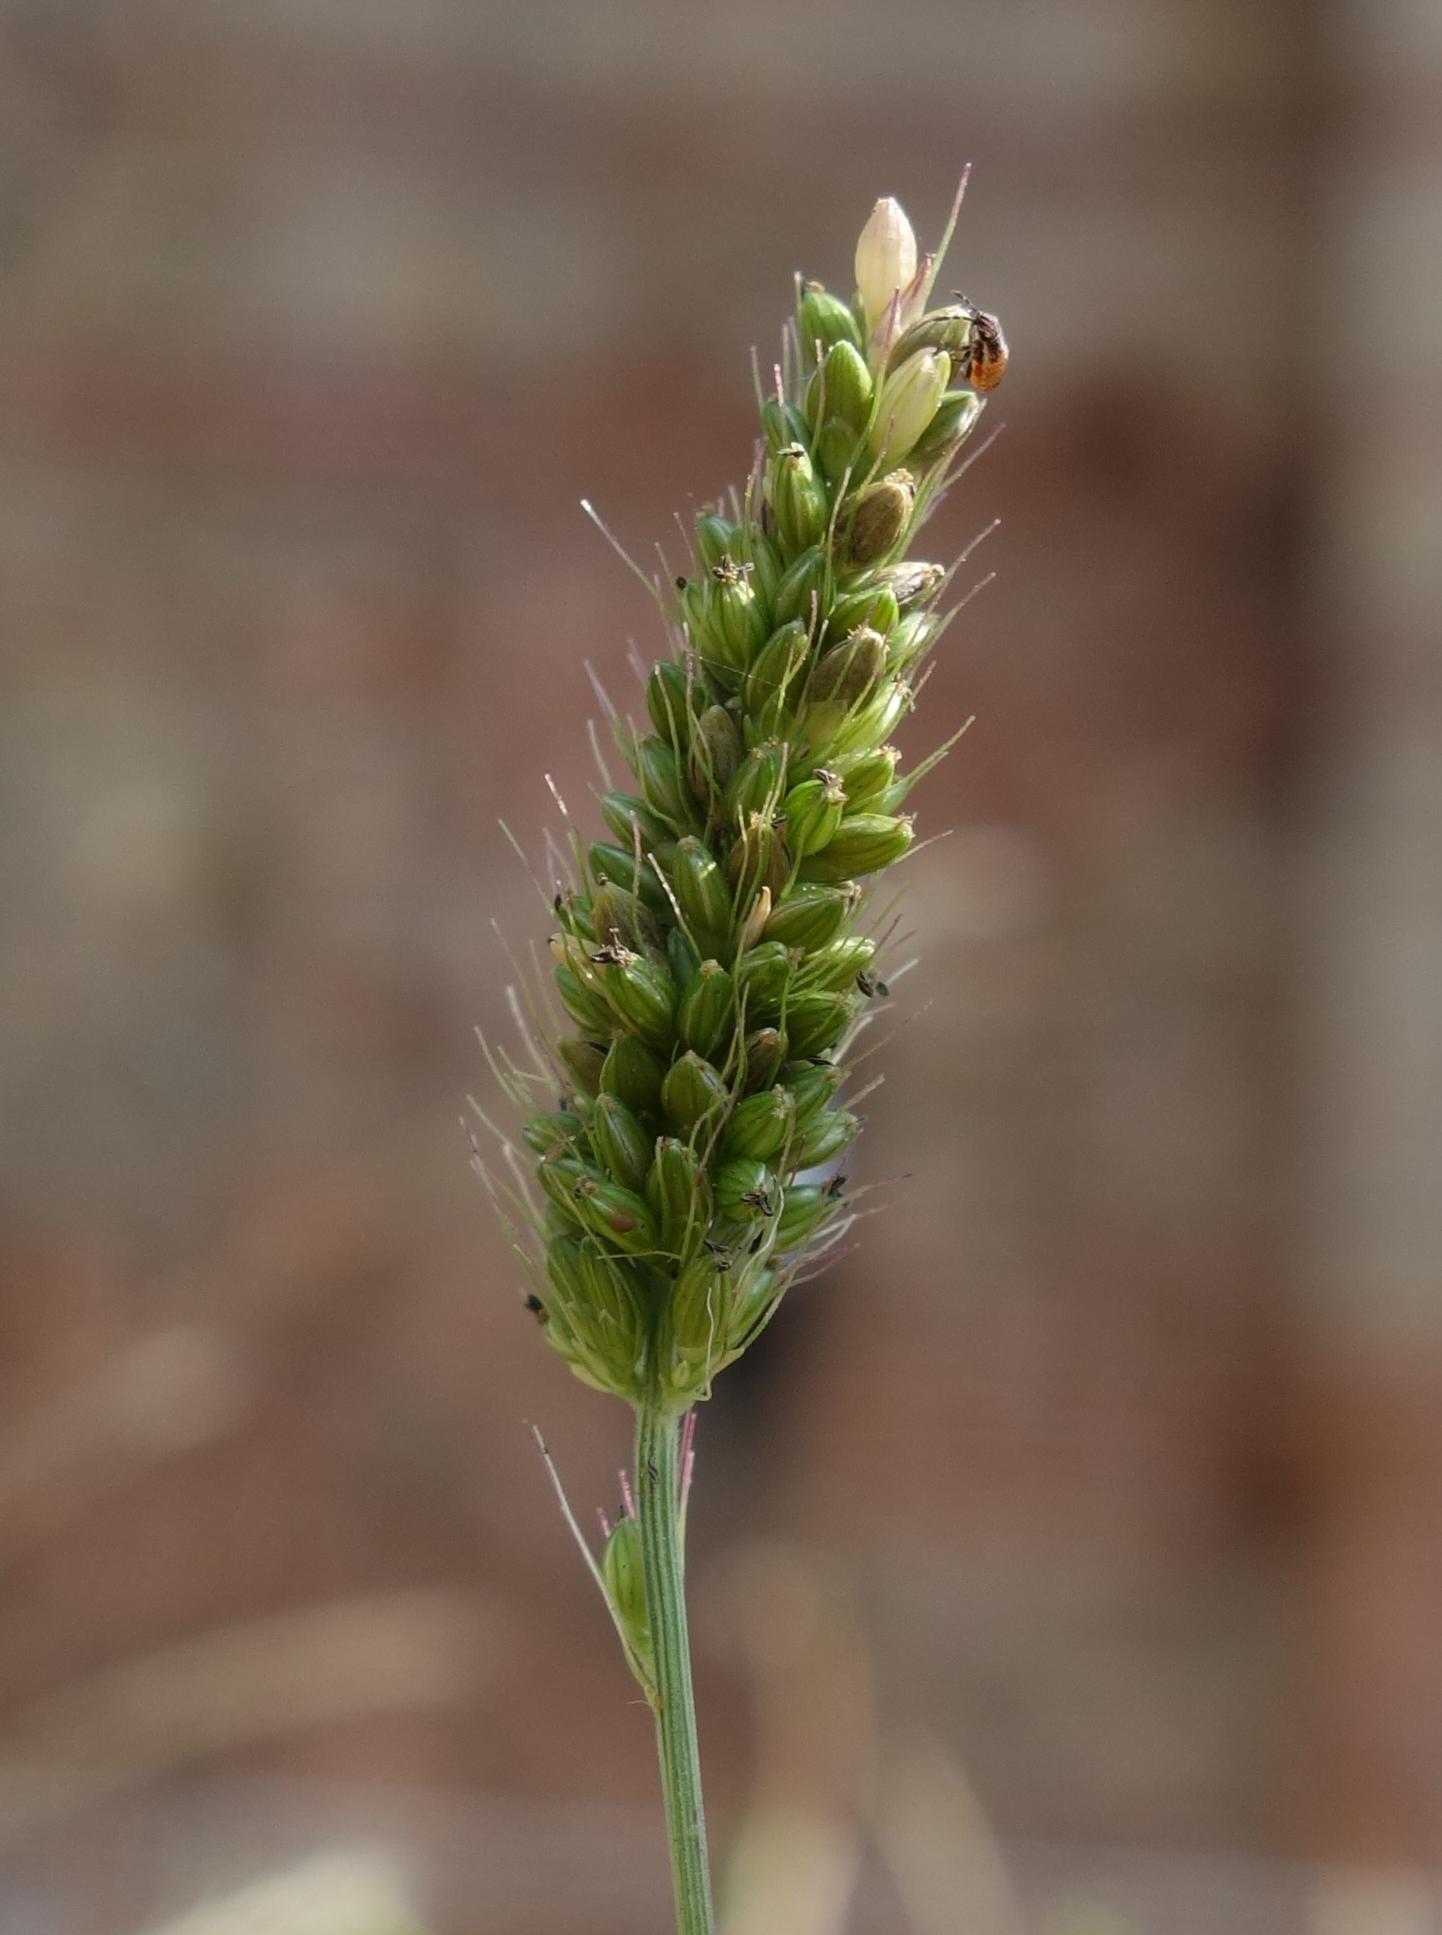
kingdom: Plantae
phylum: Tracheophyta
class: Liliopsida
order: Poales
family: Poaceae
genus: Setaria
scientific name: Setaria viridis
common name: Green bristlegrass
